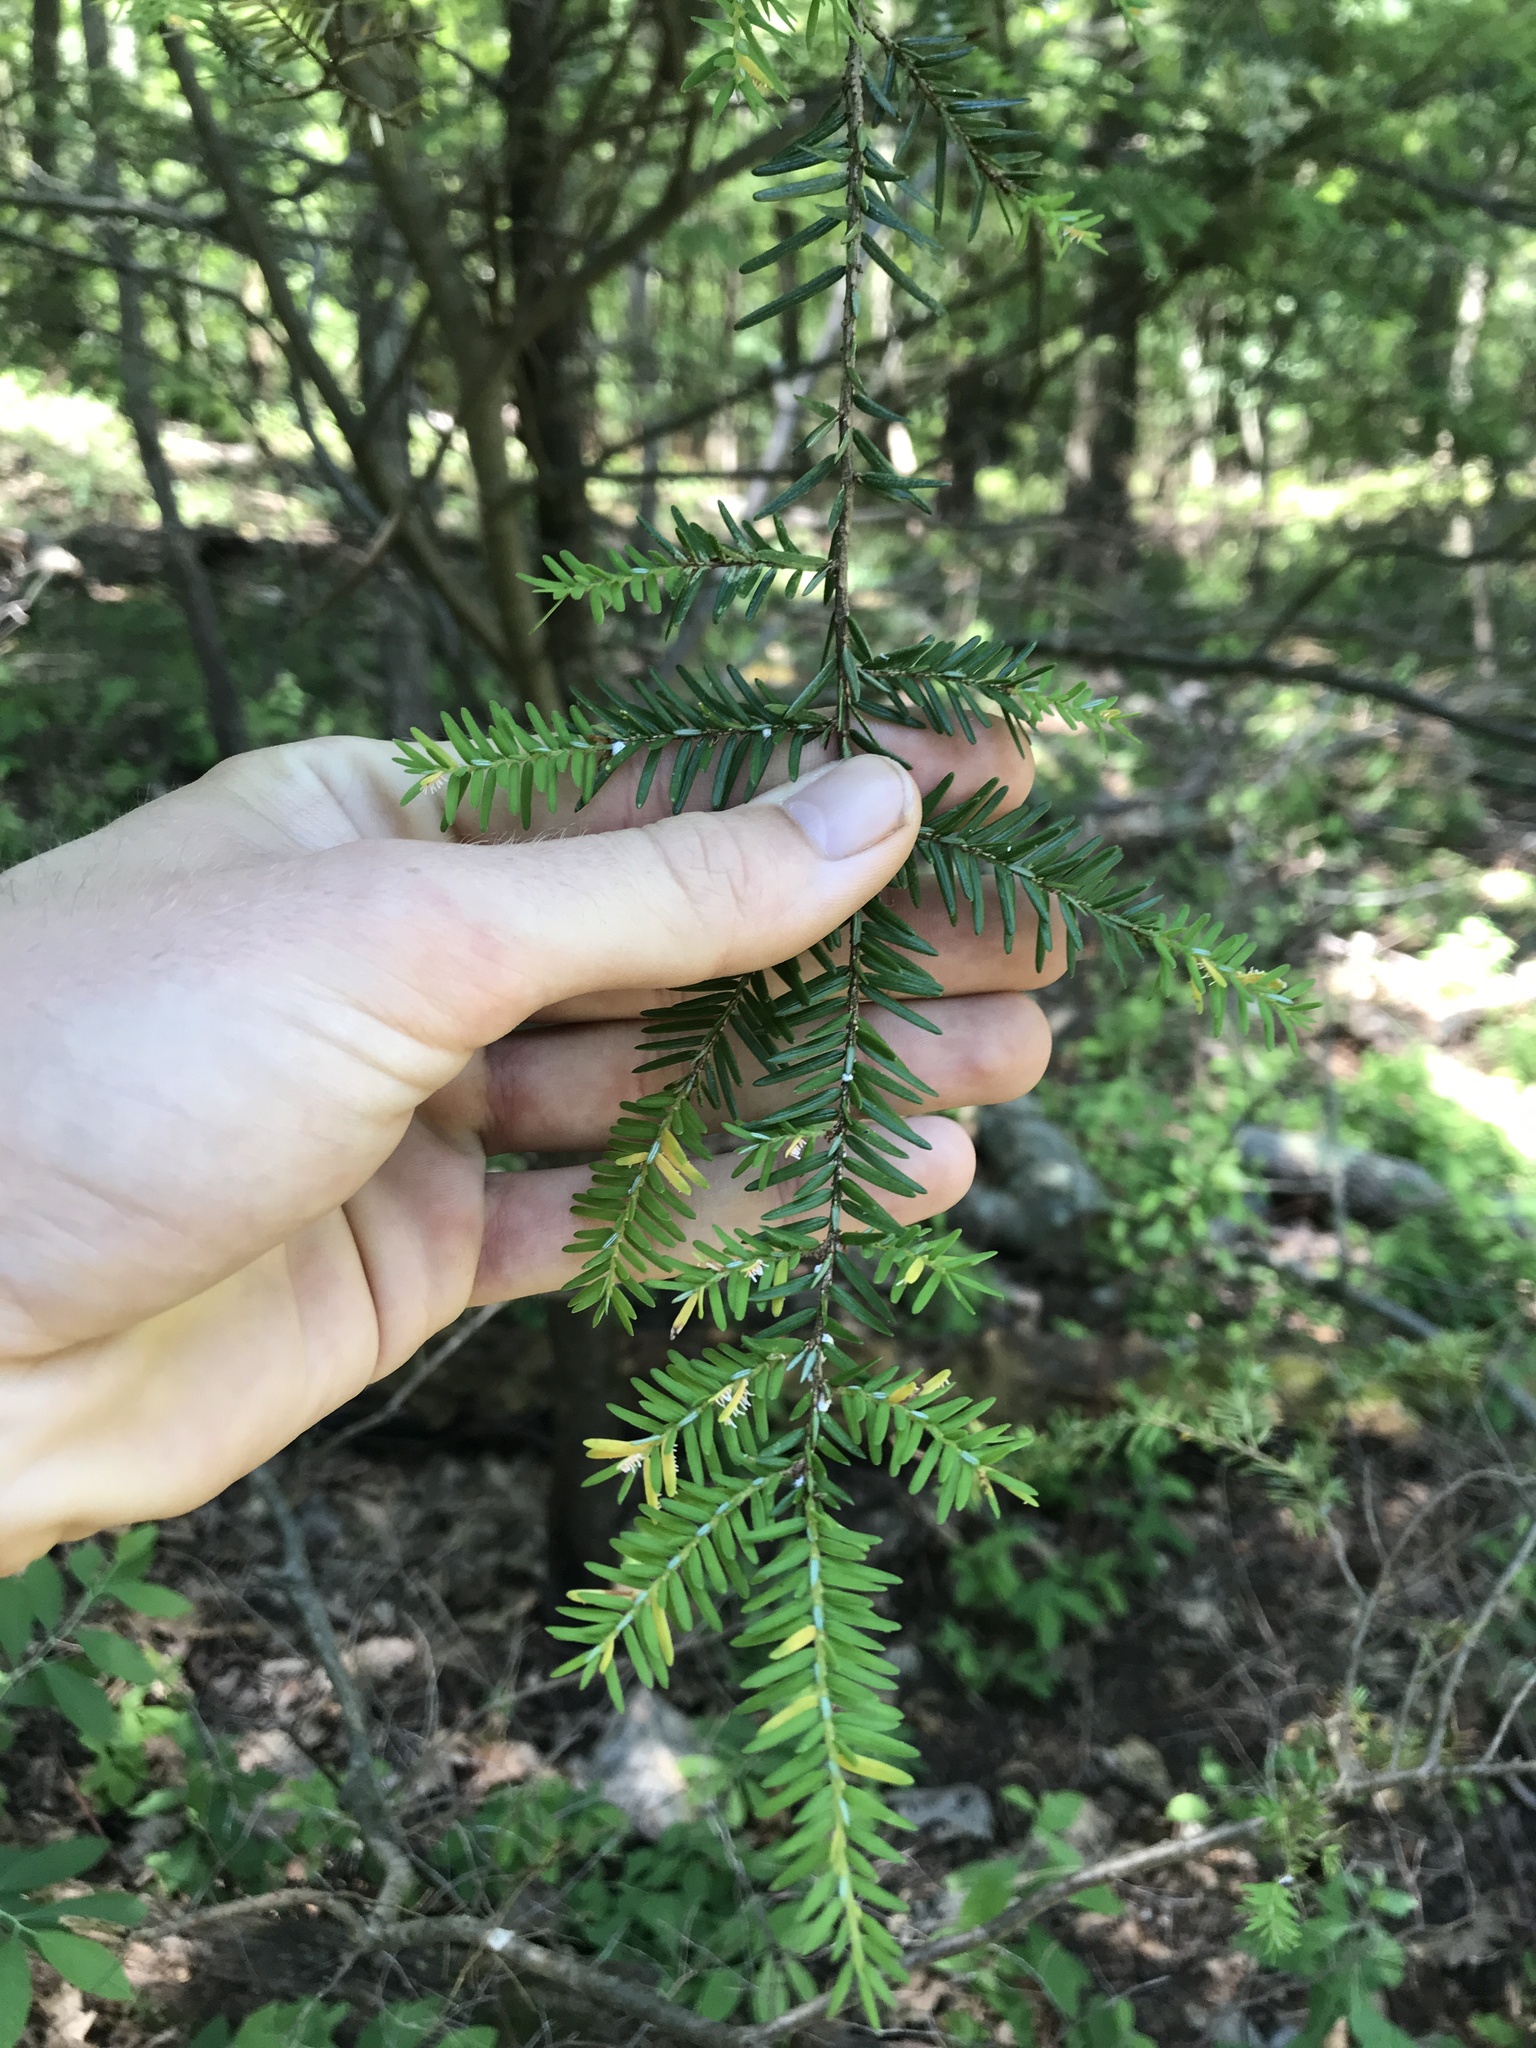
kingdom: Plantae
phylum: Tracheophyta
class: Pinopsida
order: Pinales
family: Pinaceae
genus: Tsuga
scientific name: Tsuga canadensis
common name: Eastern hemlock
